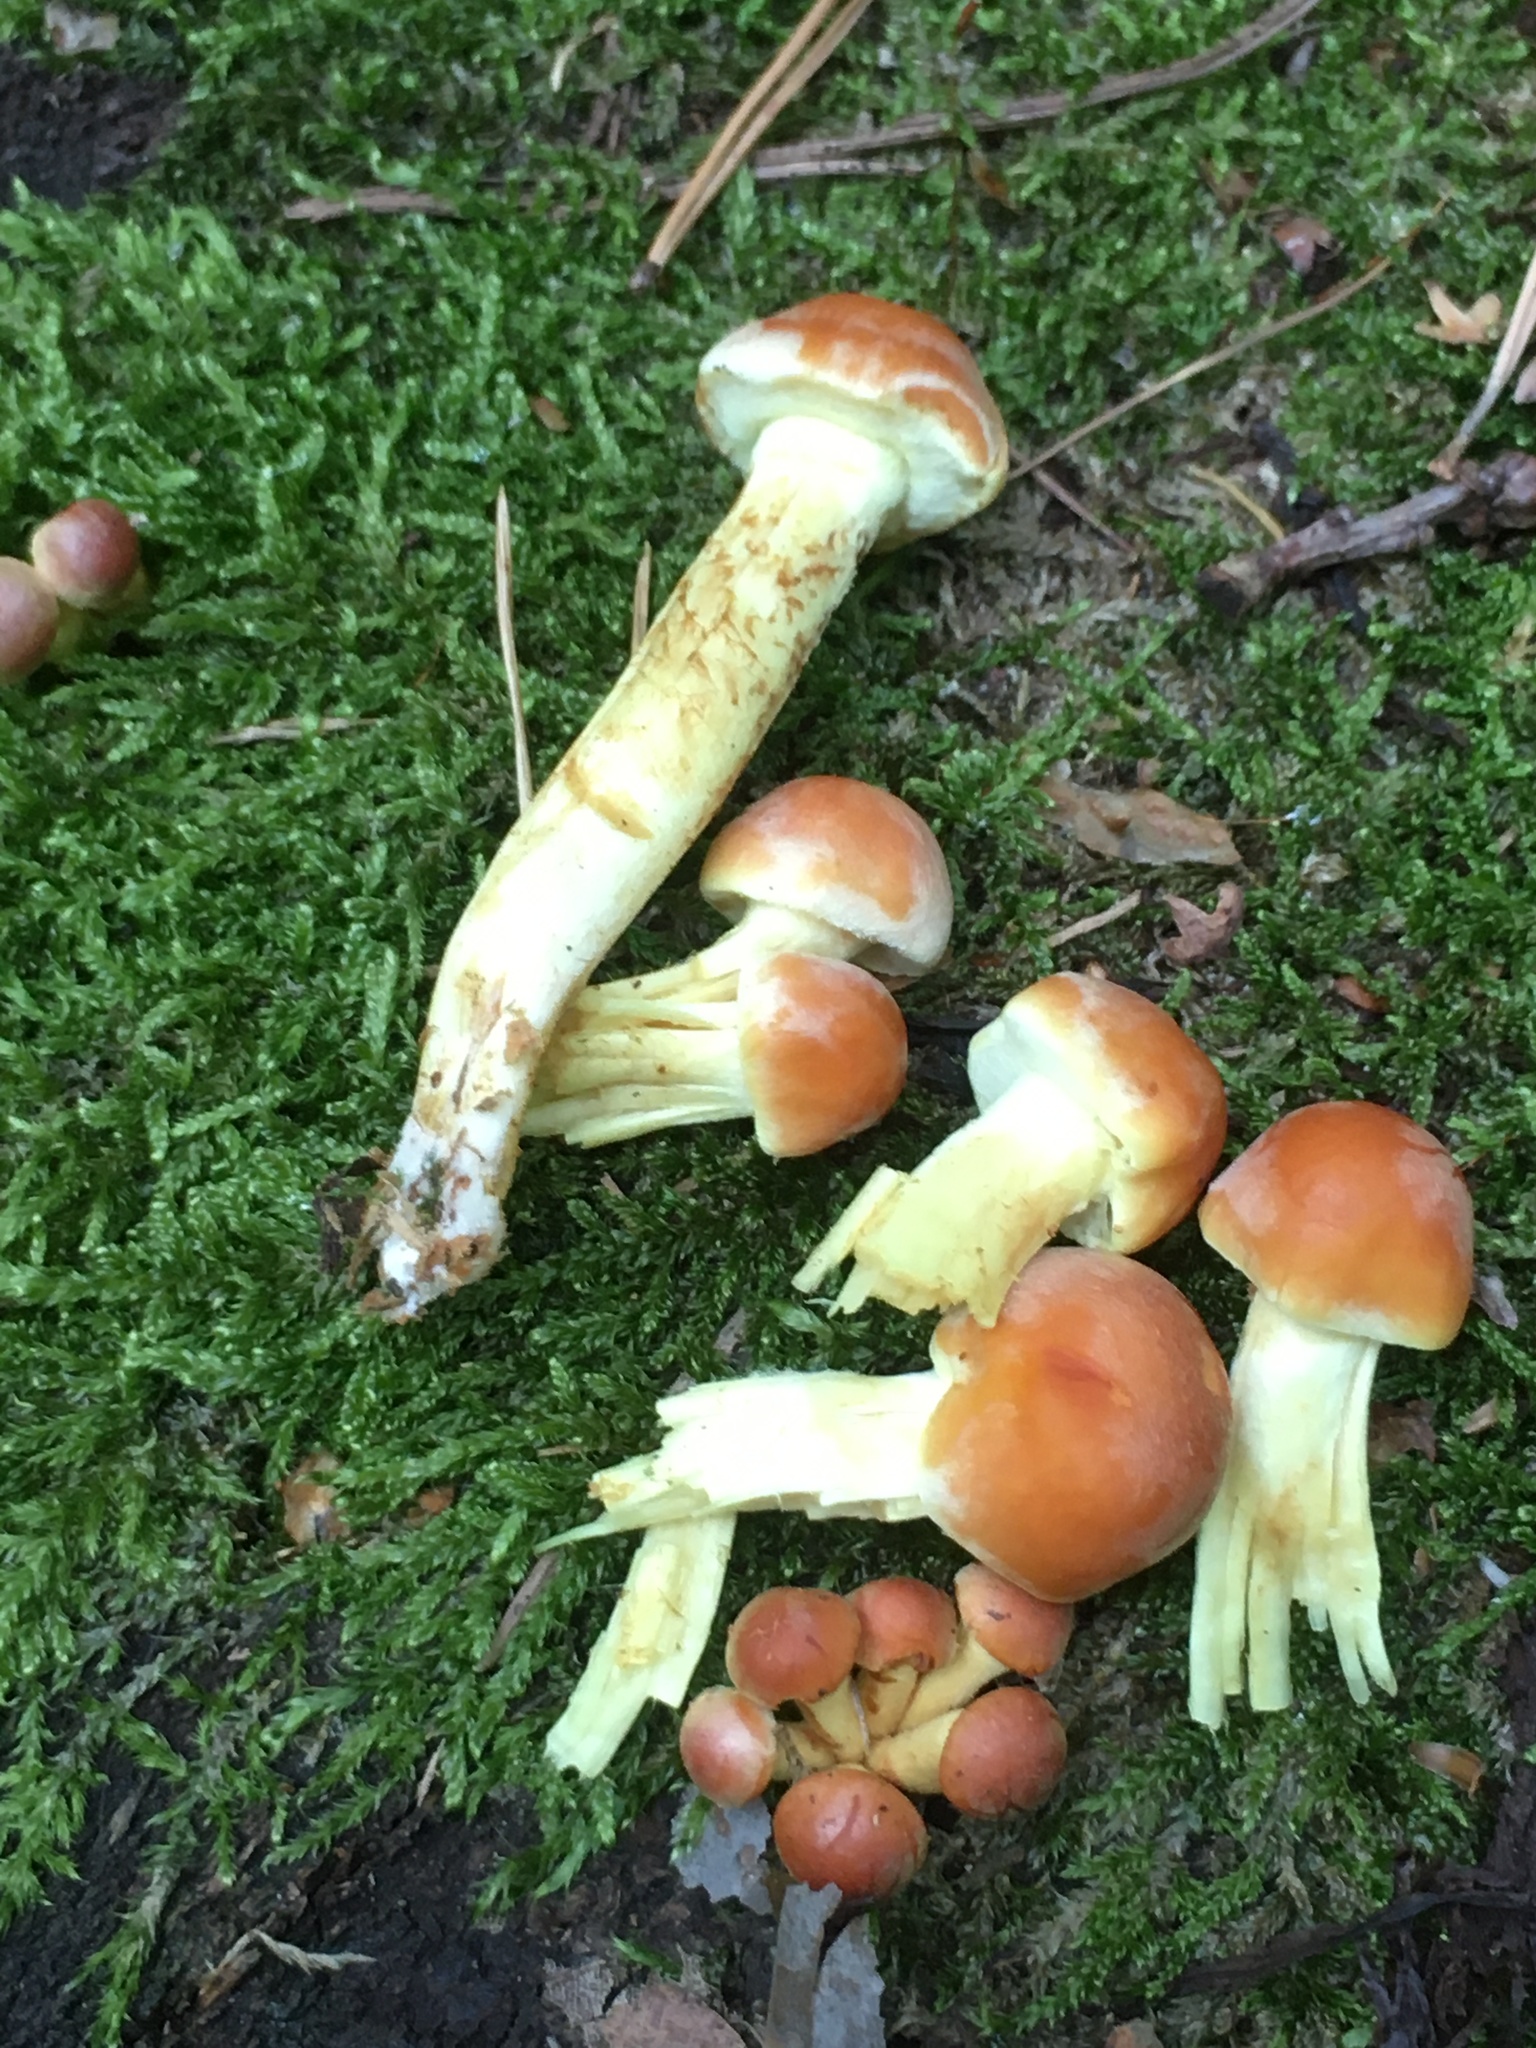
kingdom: Fungi
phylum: Basidiomycota
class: Agaricomycetes
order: Agaricales
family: Strophariaceae
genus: Hypholoma
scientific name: Hypholoma fasciculare
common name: Sulphur tuft
